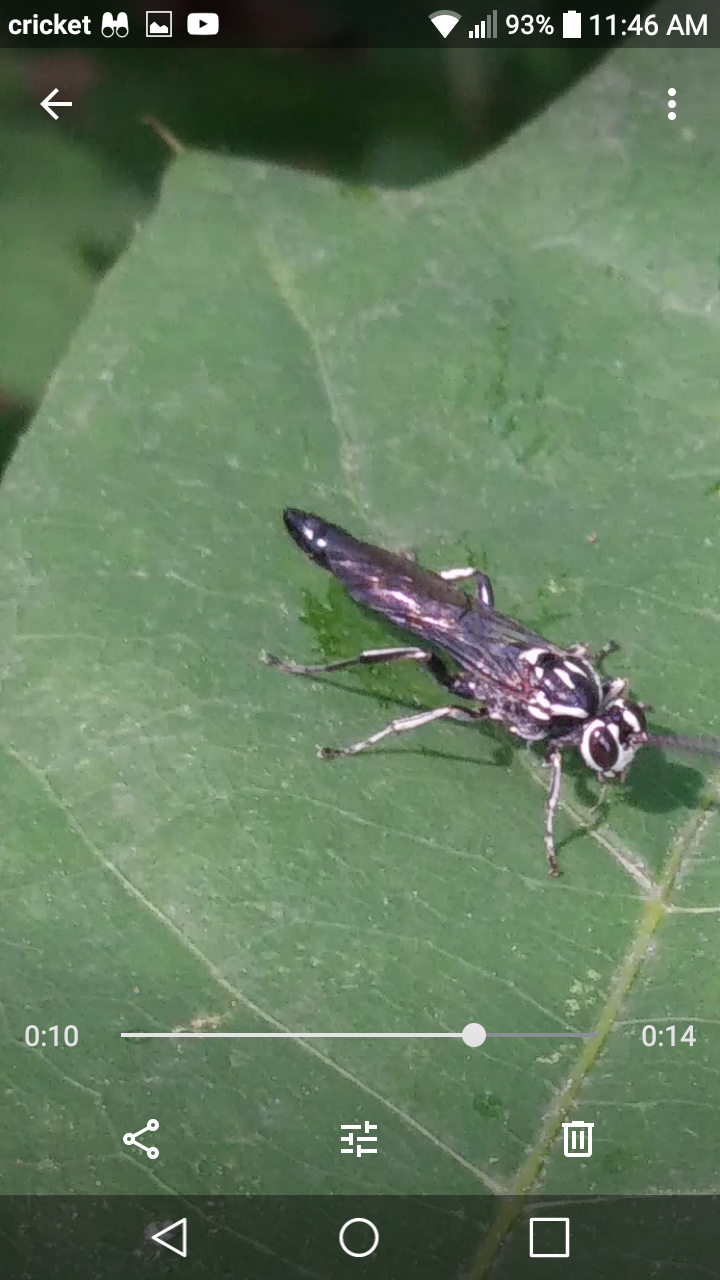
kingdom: Plantae
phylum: Tracheophyta
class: Magnoliopsida
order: Piperales
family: Saururaceae
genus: Saururus
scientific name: Saururus cernuus
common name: Lizard's-tail
